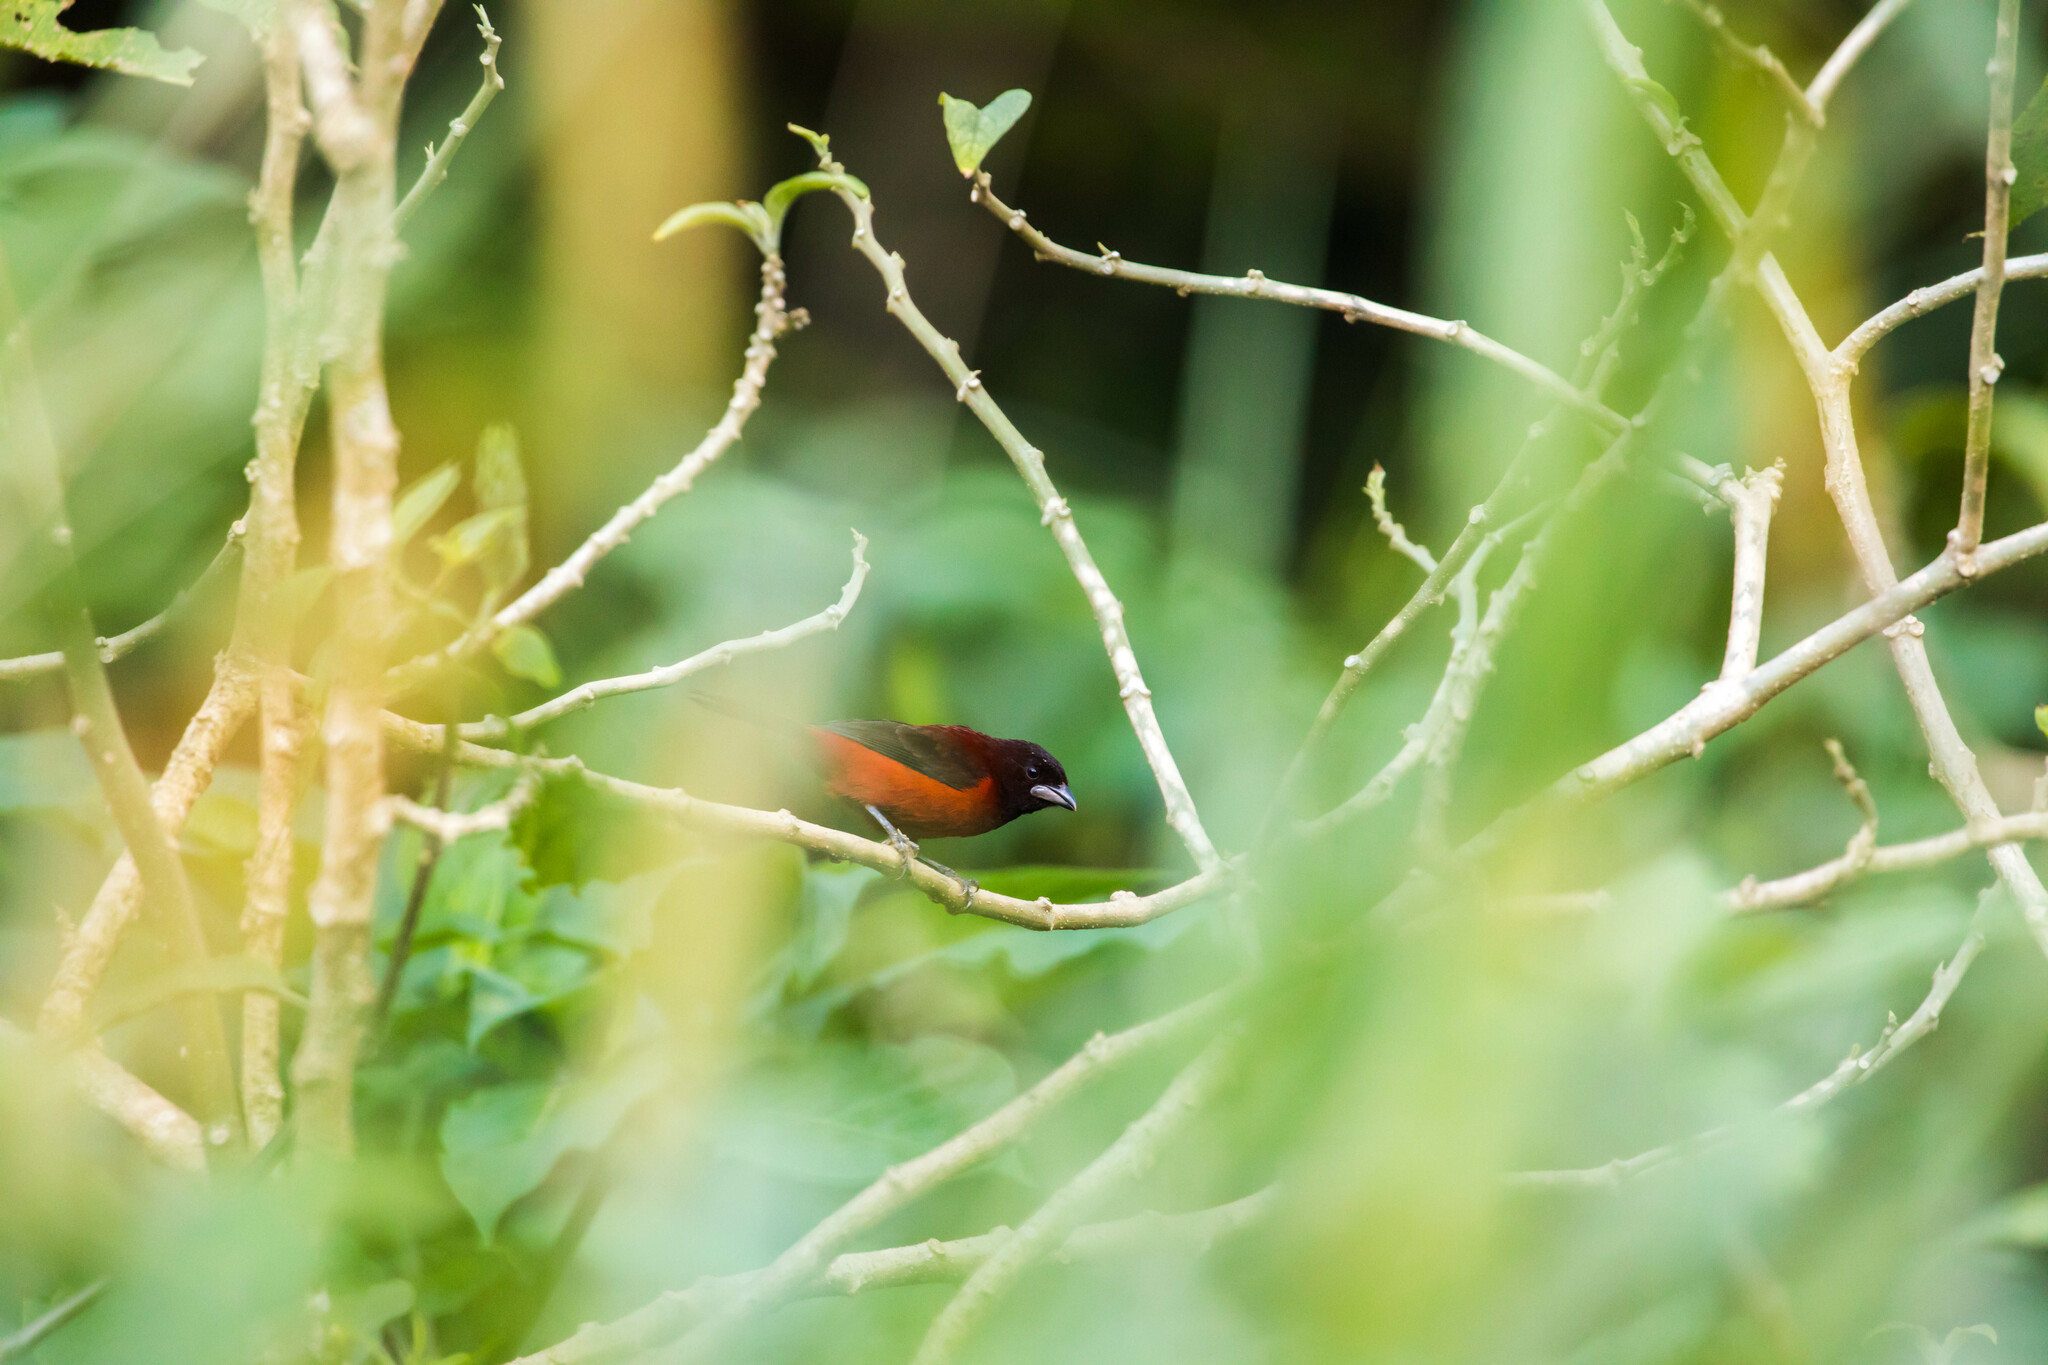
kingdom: Animalia
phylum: Chordata
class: Aves
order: Passeriformes
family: Thraupidae
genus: Ramphocelus
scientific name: Ramphocelus dimidiatus
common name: Crimson-backed tanager
